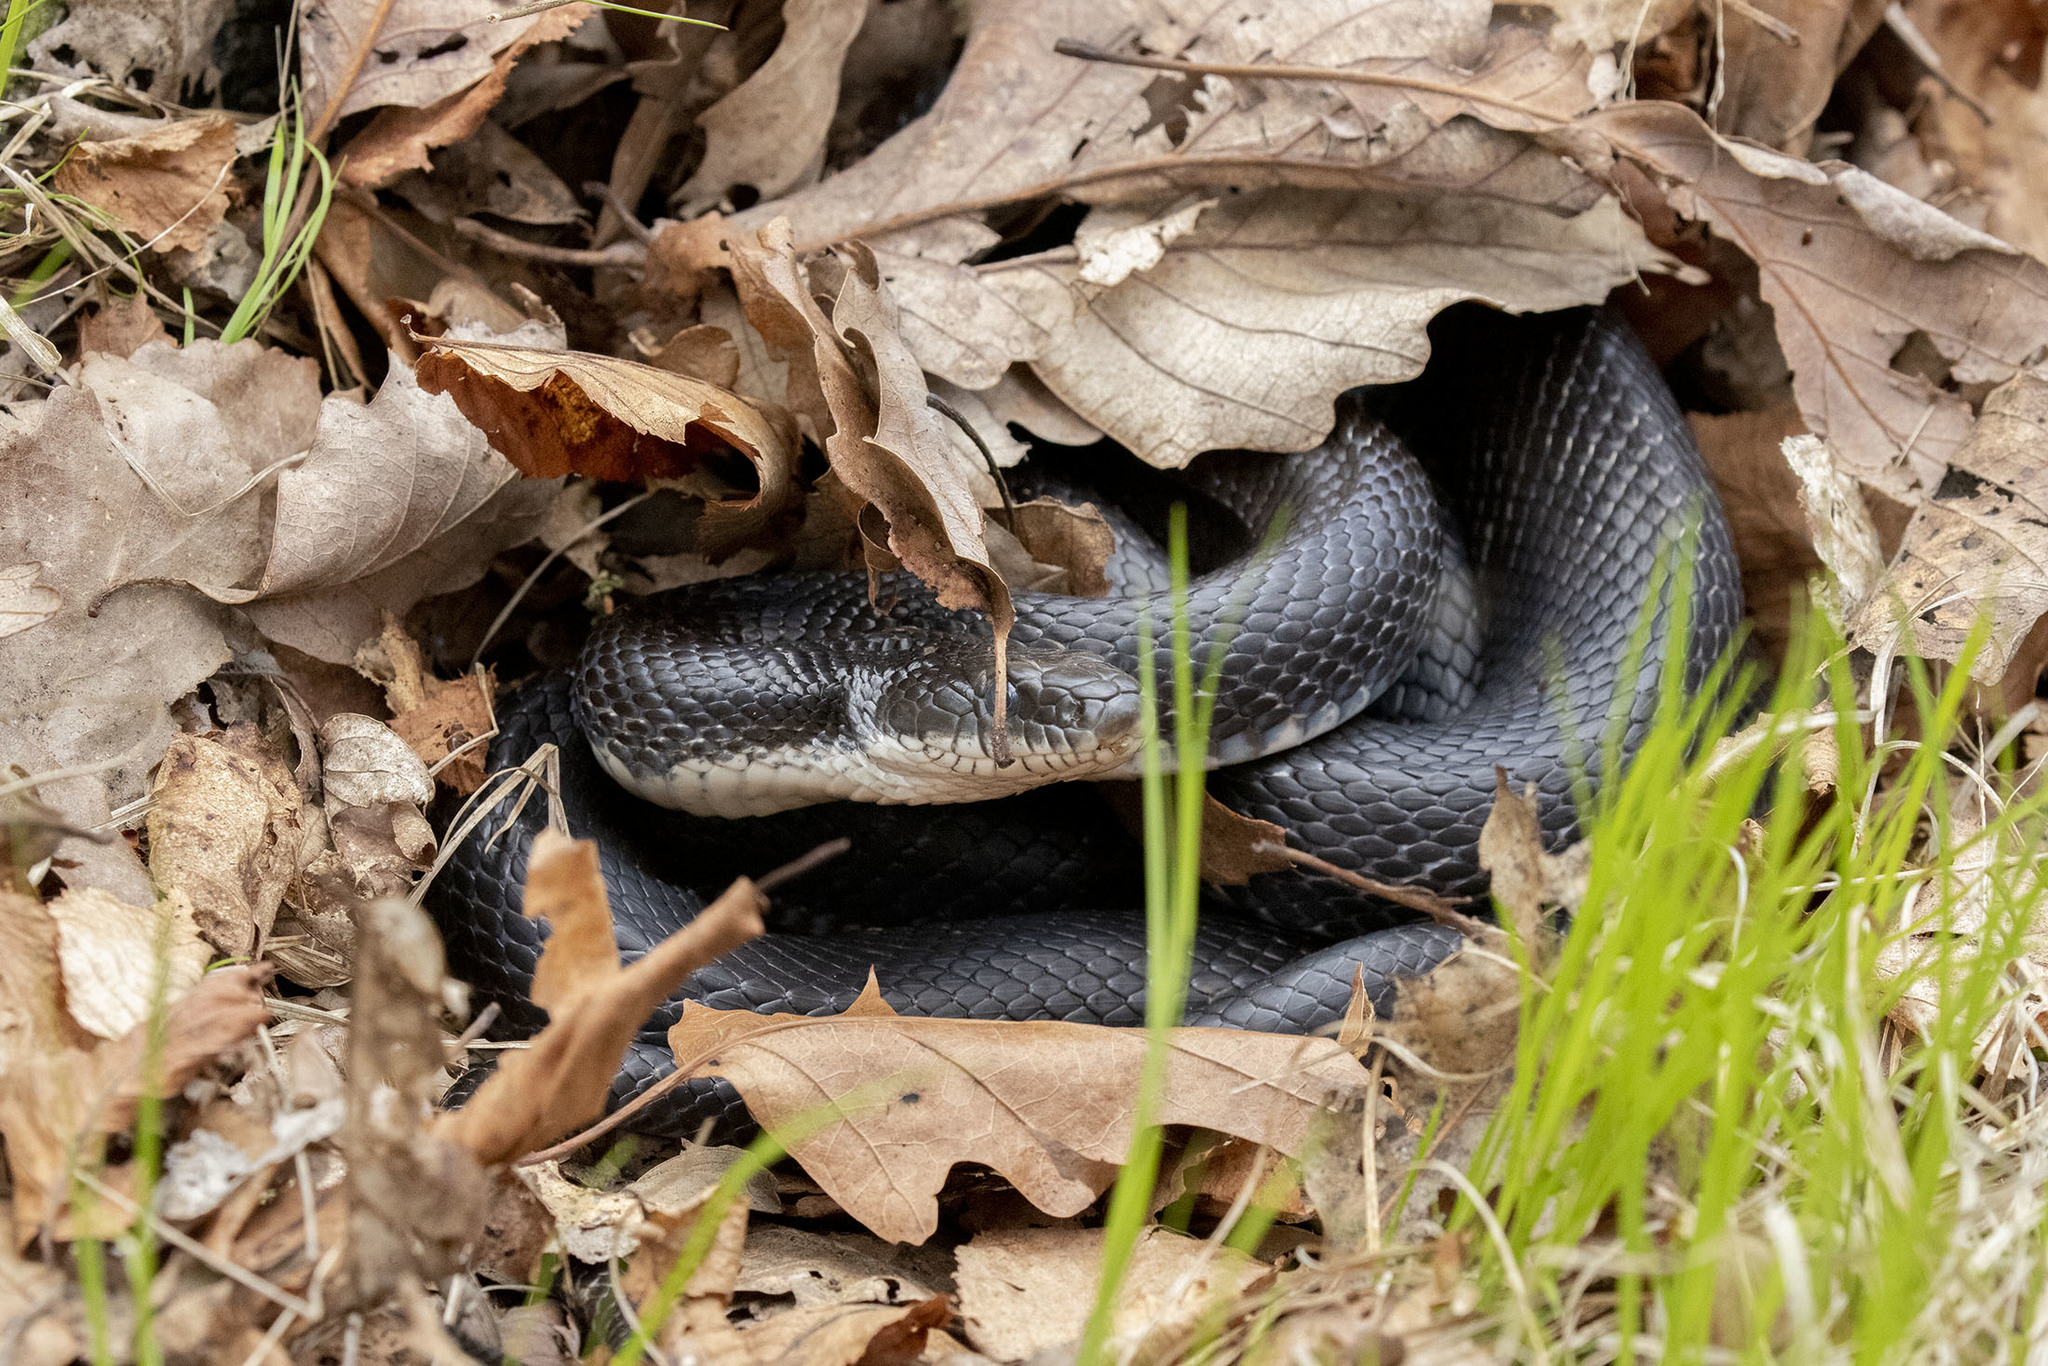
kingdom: Animalia
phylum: Chordata
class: Squamata
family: Colubridae
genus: Pantherophis
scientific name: Pantherophis alleghaniensis
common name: Eastern rat snake
